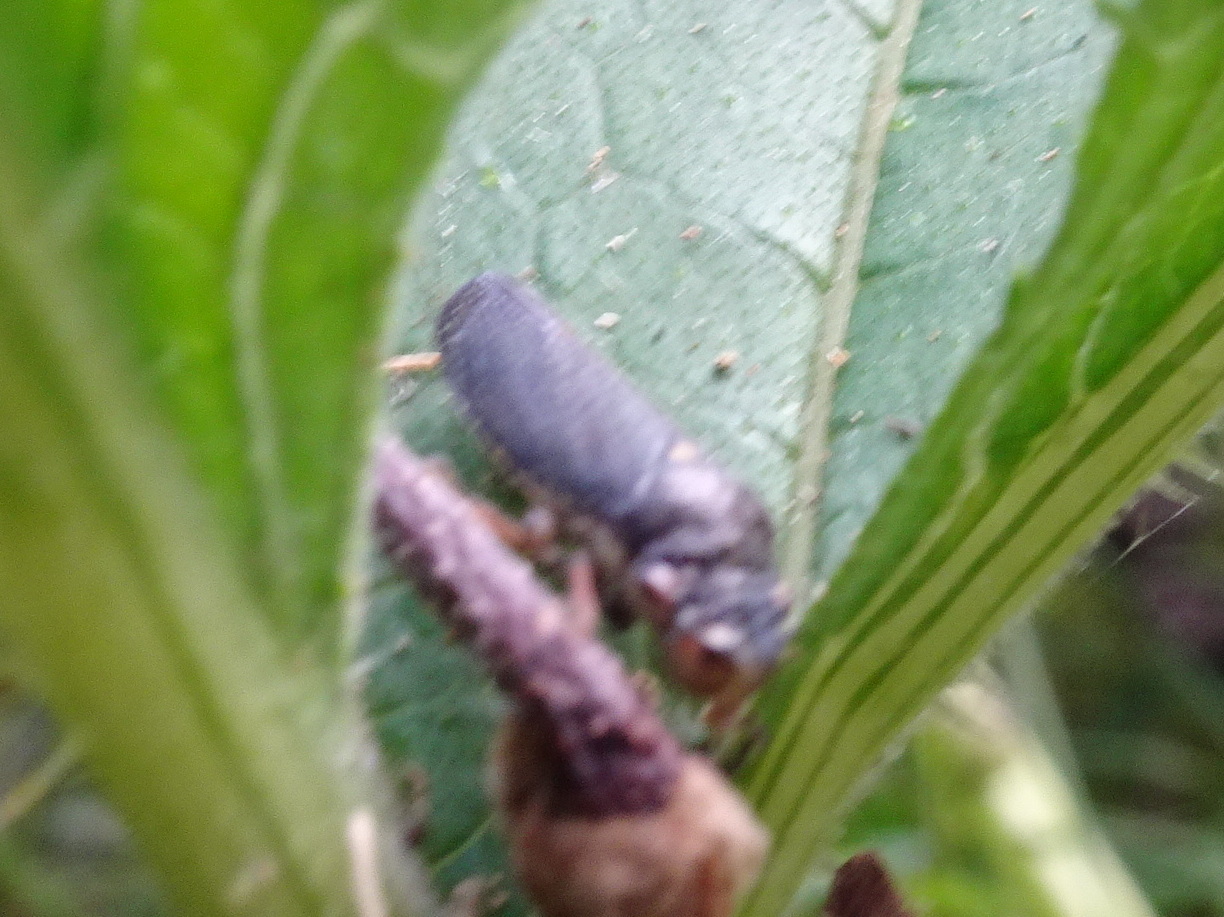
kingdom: Animalia
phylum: Arthropoda
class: Insecta
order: Hemiptera
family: Cicadellidae
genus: Paraulacizes
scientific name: Paraulacizes irrorata
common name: Speckled sharpshooter
